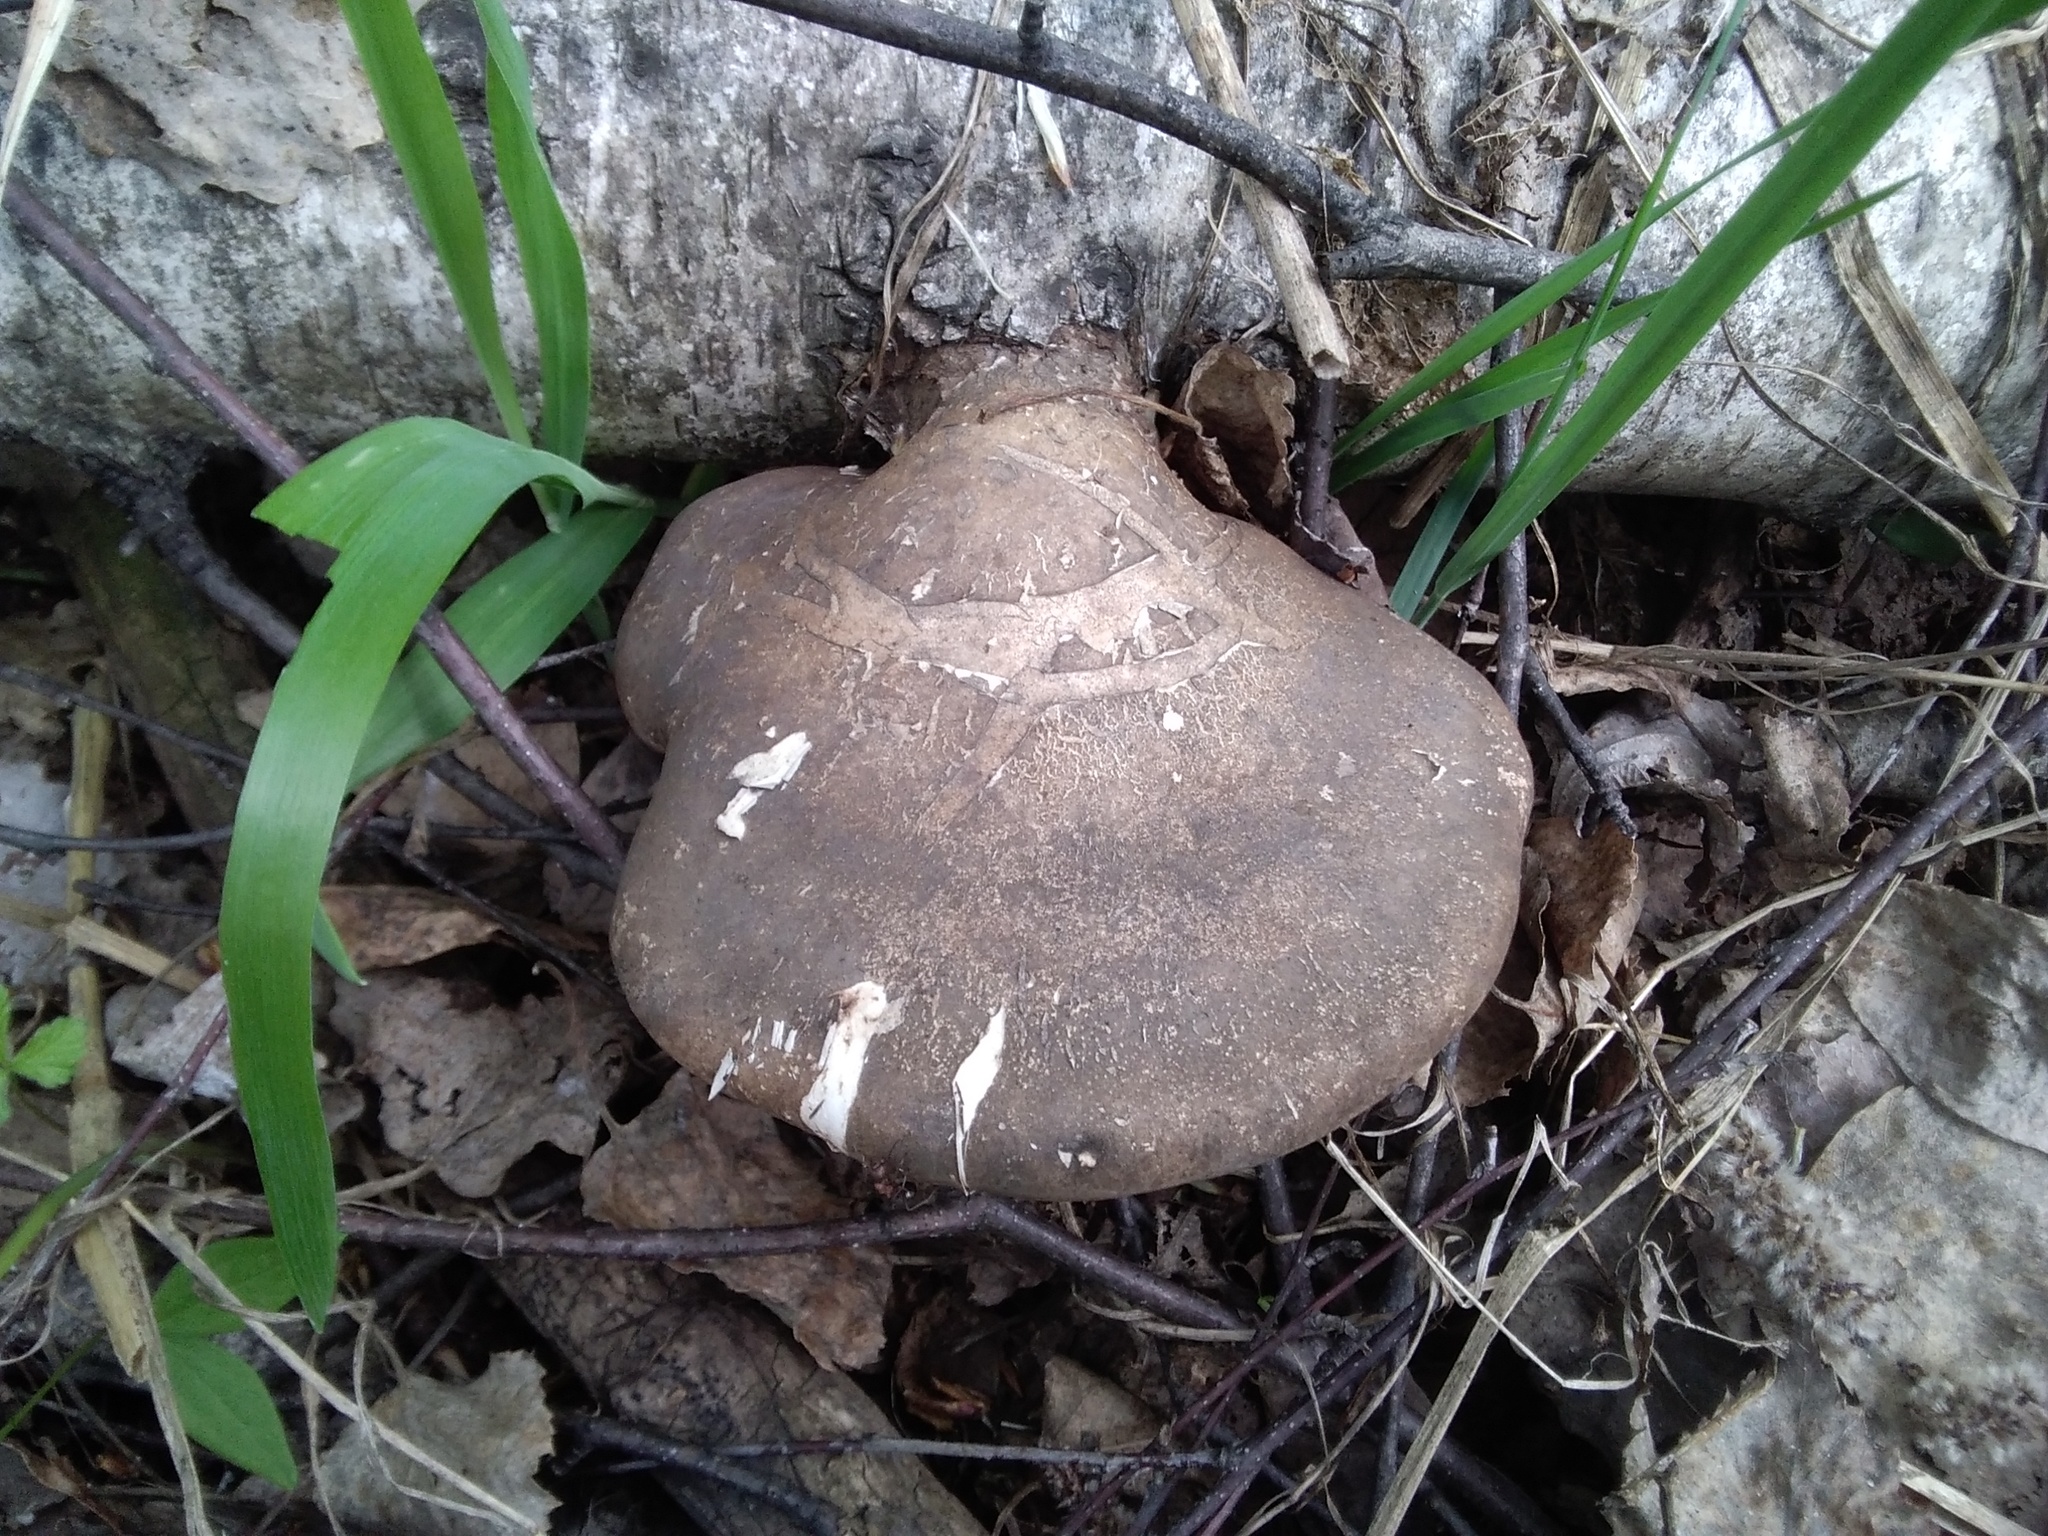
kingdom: Fungi
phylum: Basidiomycota
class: Agaricomycetes
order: Polyporales
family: Fomitopsidaceae
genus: Fomitopsis
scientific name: Fomitopsis betulina
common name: Birch polypore
